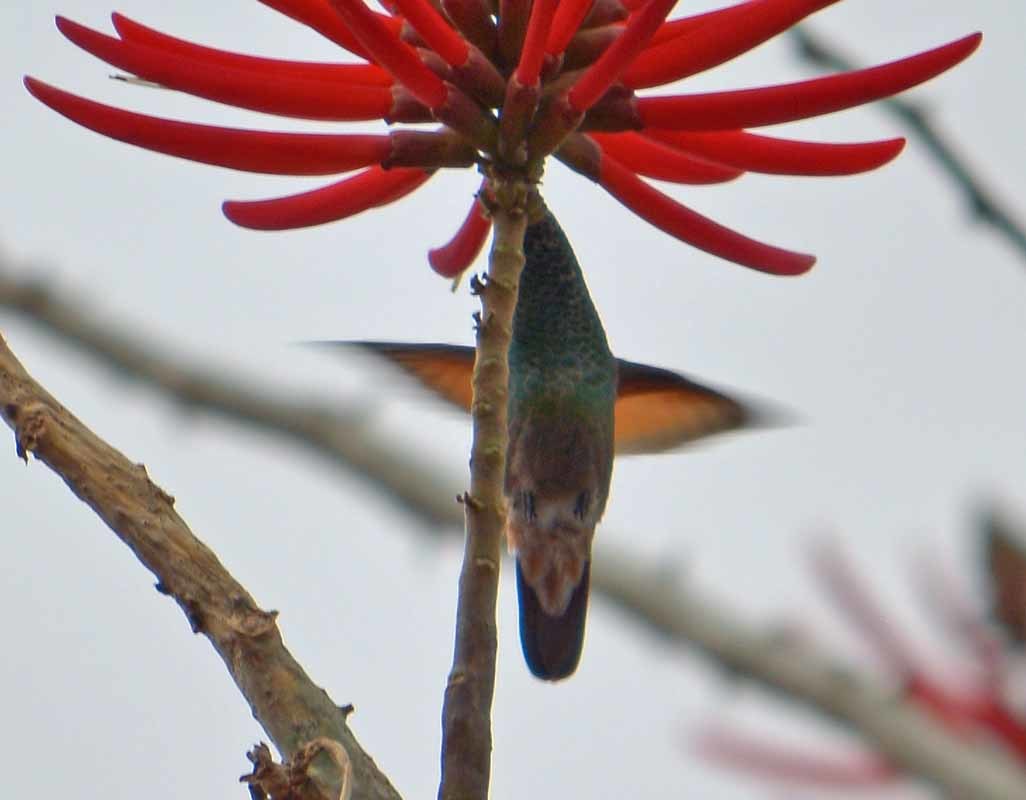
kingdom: Animalia
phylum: Chordata
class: Aves
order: Apodiformes
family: Trochilidae
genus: Saucerottia
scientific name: Saucerottia beryllina
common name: Berylline hummingbird
